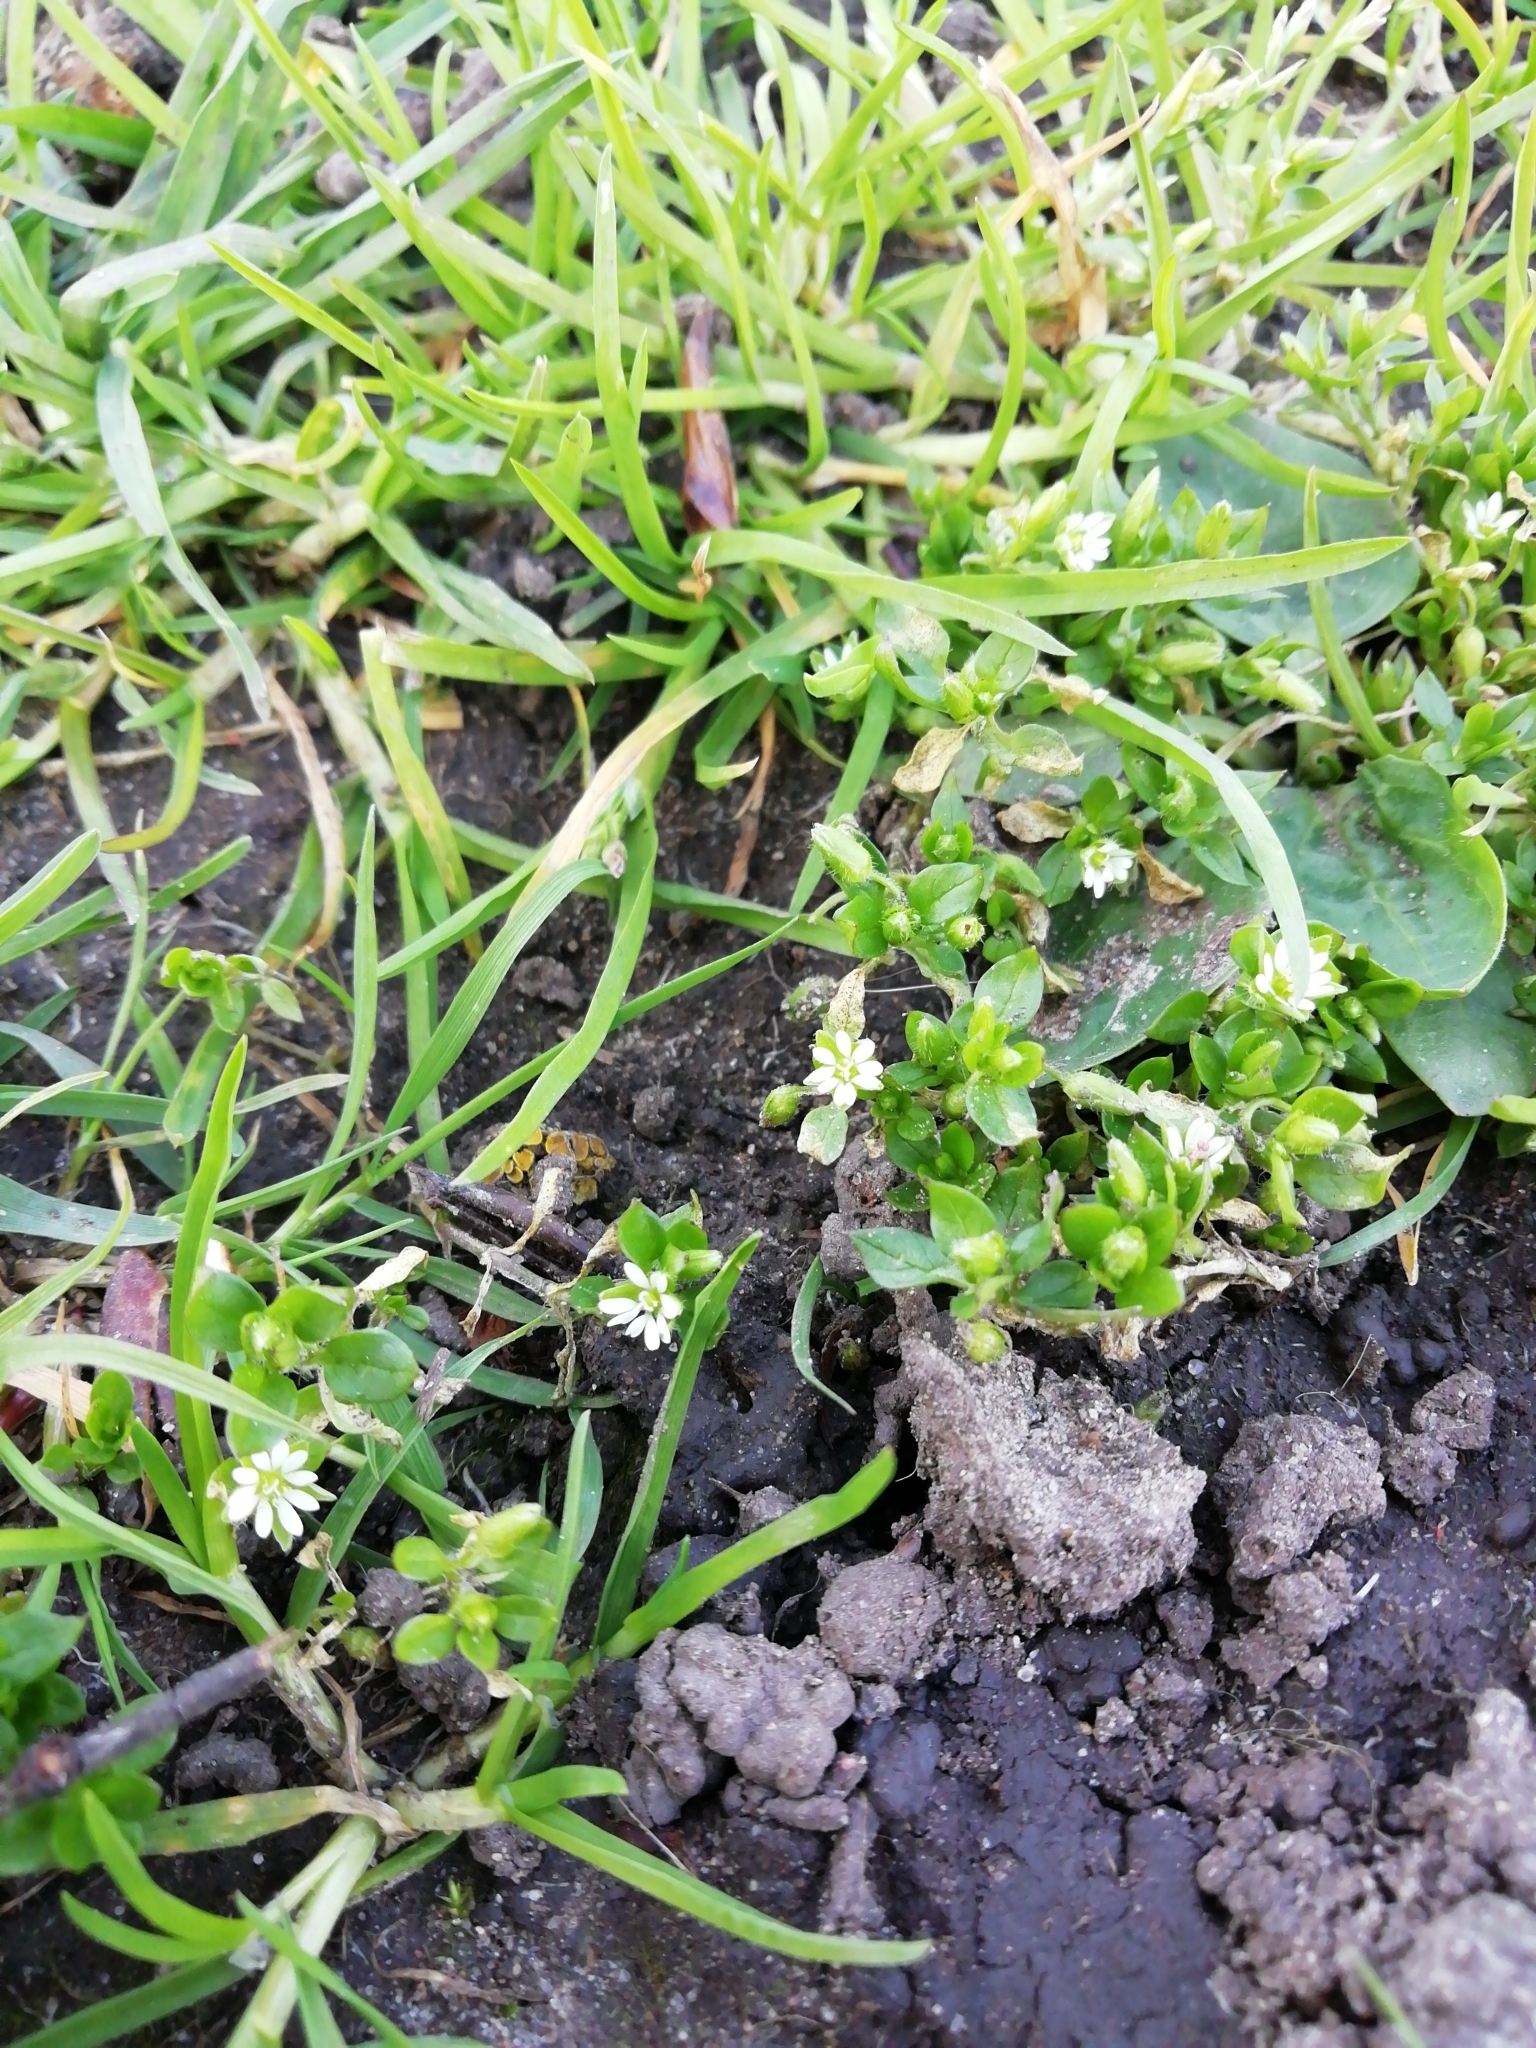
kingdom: Plantae
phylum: Tracheophyta
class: Magnoliopsida
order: Caryophyllales
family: Caryophyllaceae
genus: Stellaria
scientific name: Stellaria media
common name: Common chickweed
